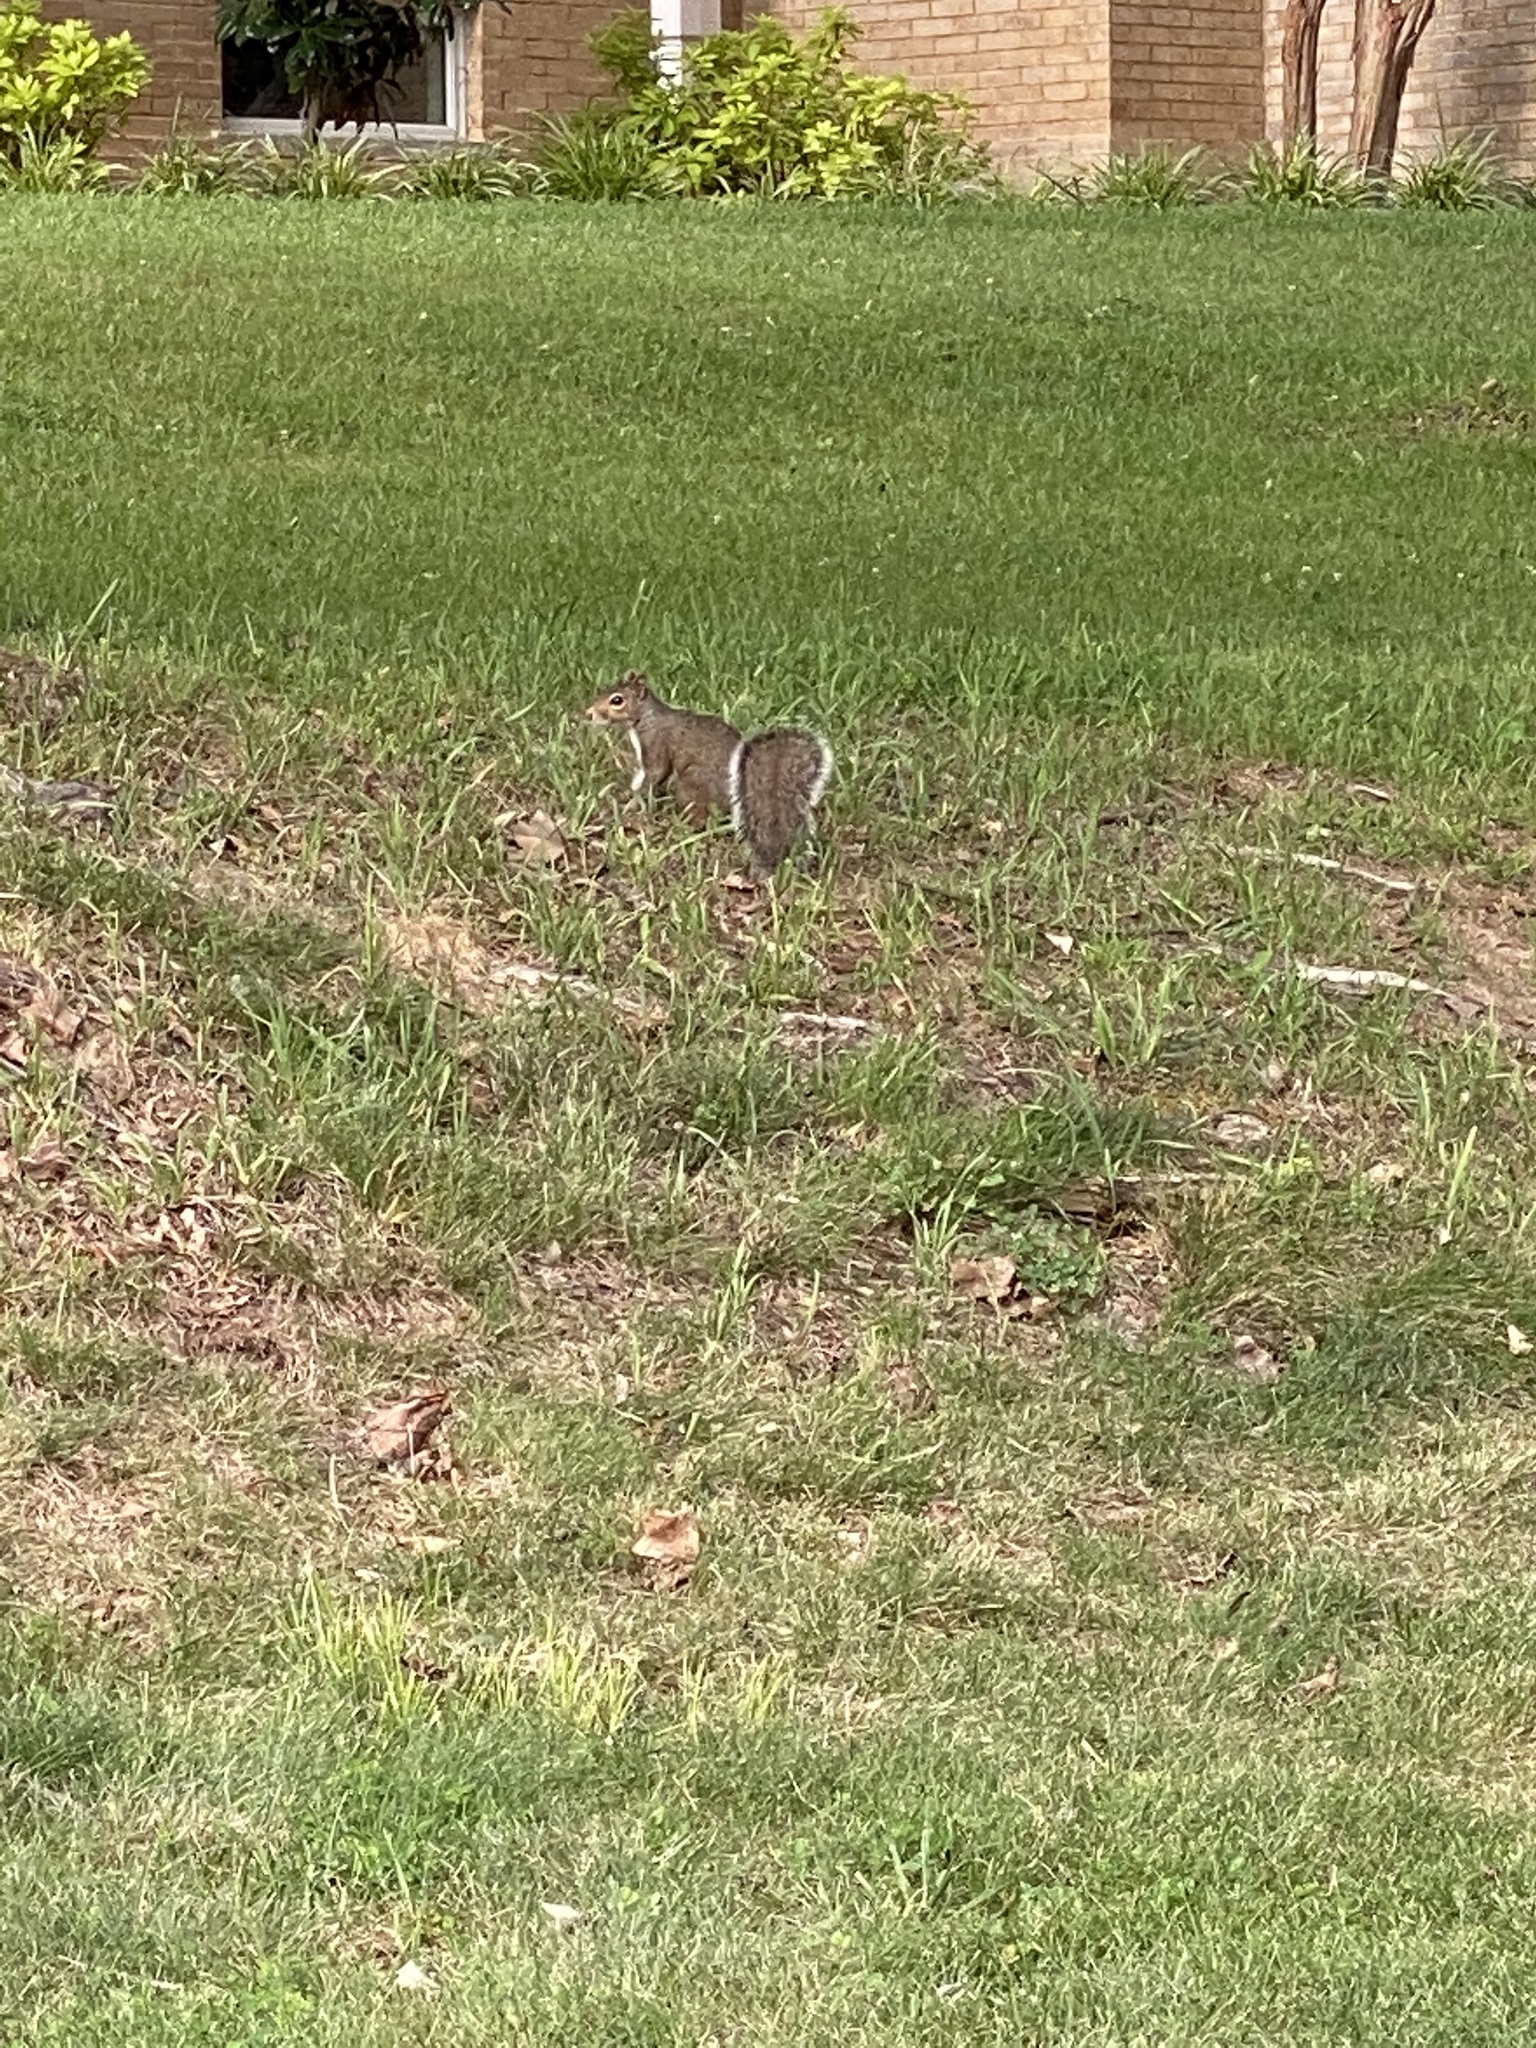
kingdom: Animalia
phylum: Chordata
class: Mammalia
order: Rodentia
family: Sciuridae
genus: Sciurus
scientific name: Sciurus carolinensis
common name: Eastern gray squirrel
